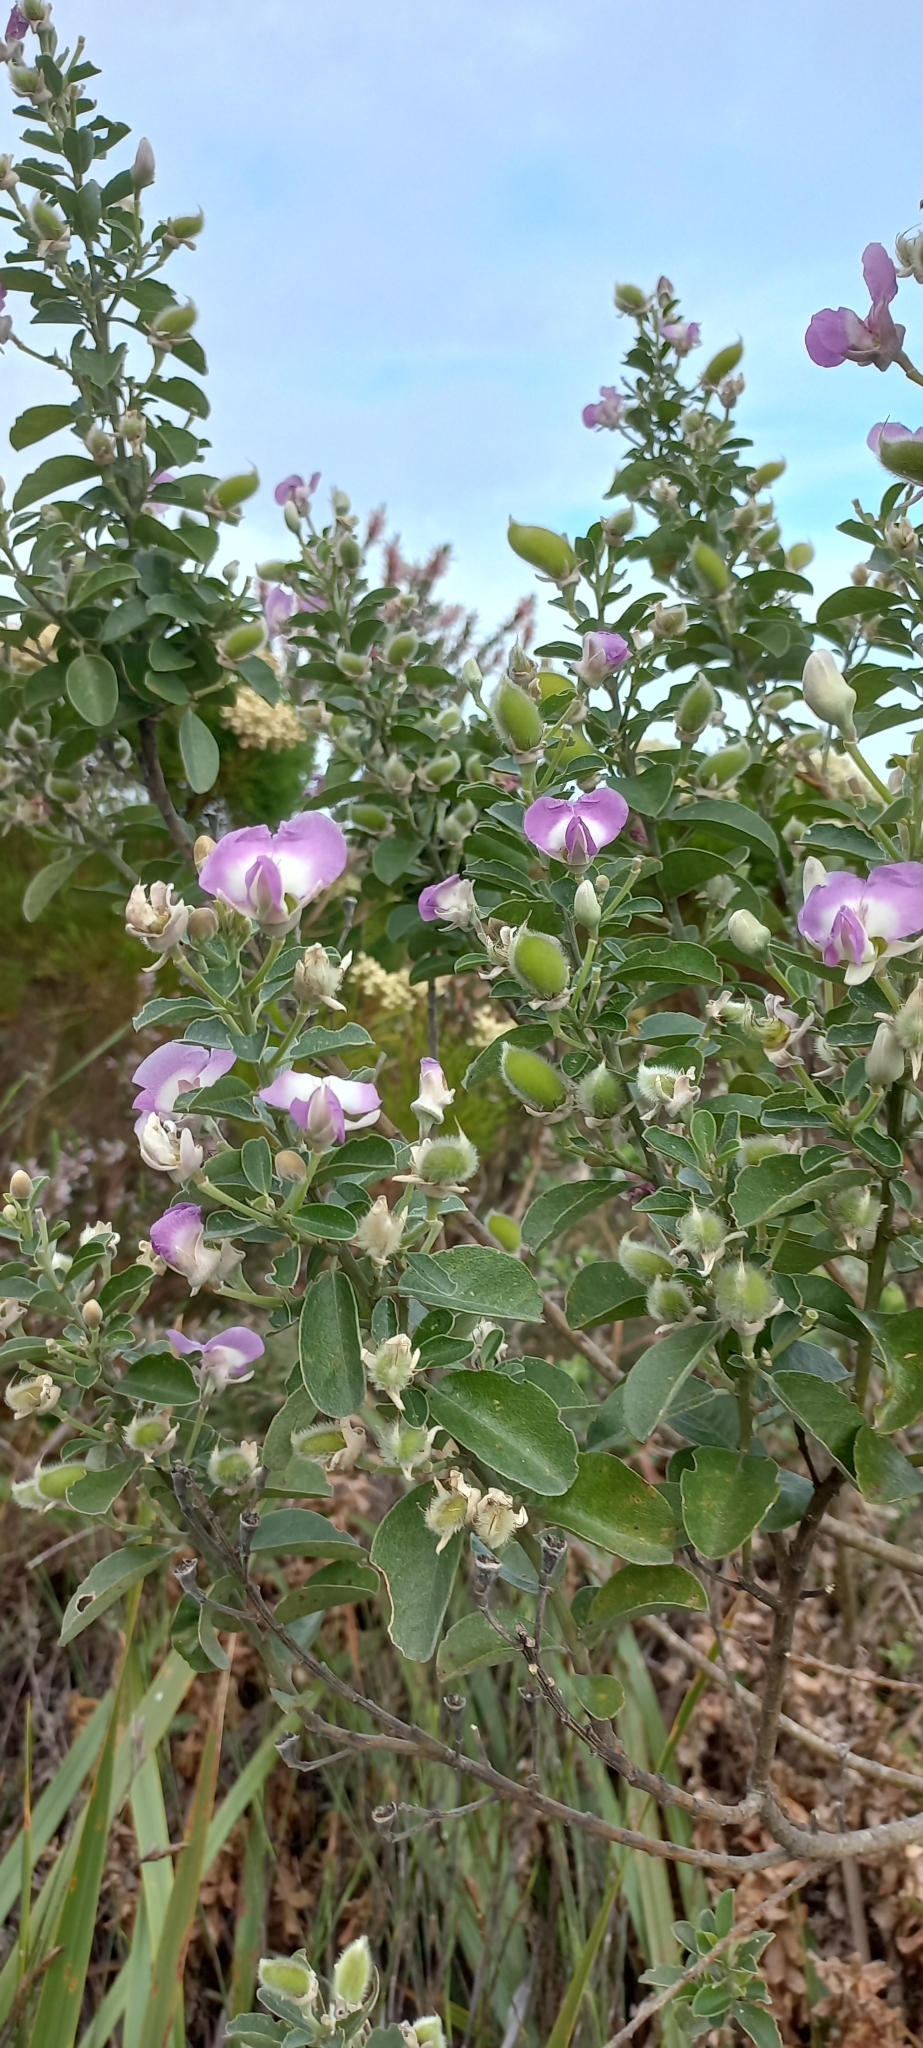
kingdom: Plantae
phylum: Tracheophyta
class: Magnoliopsida
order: Fabales
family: Fabaceae
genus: Podalyria
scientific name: Podalyria calyptrata
